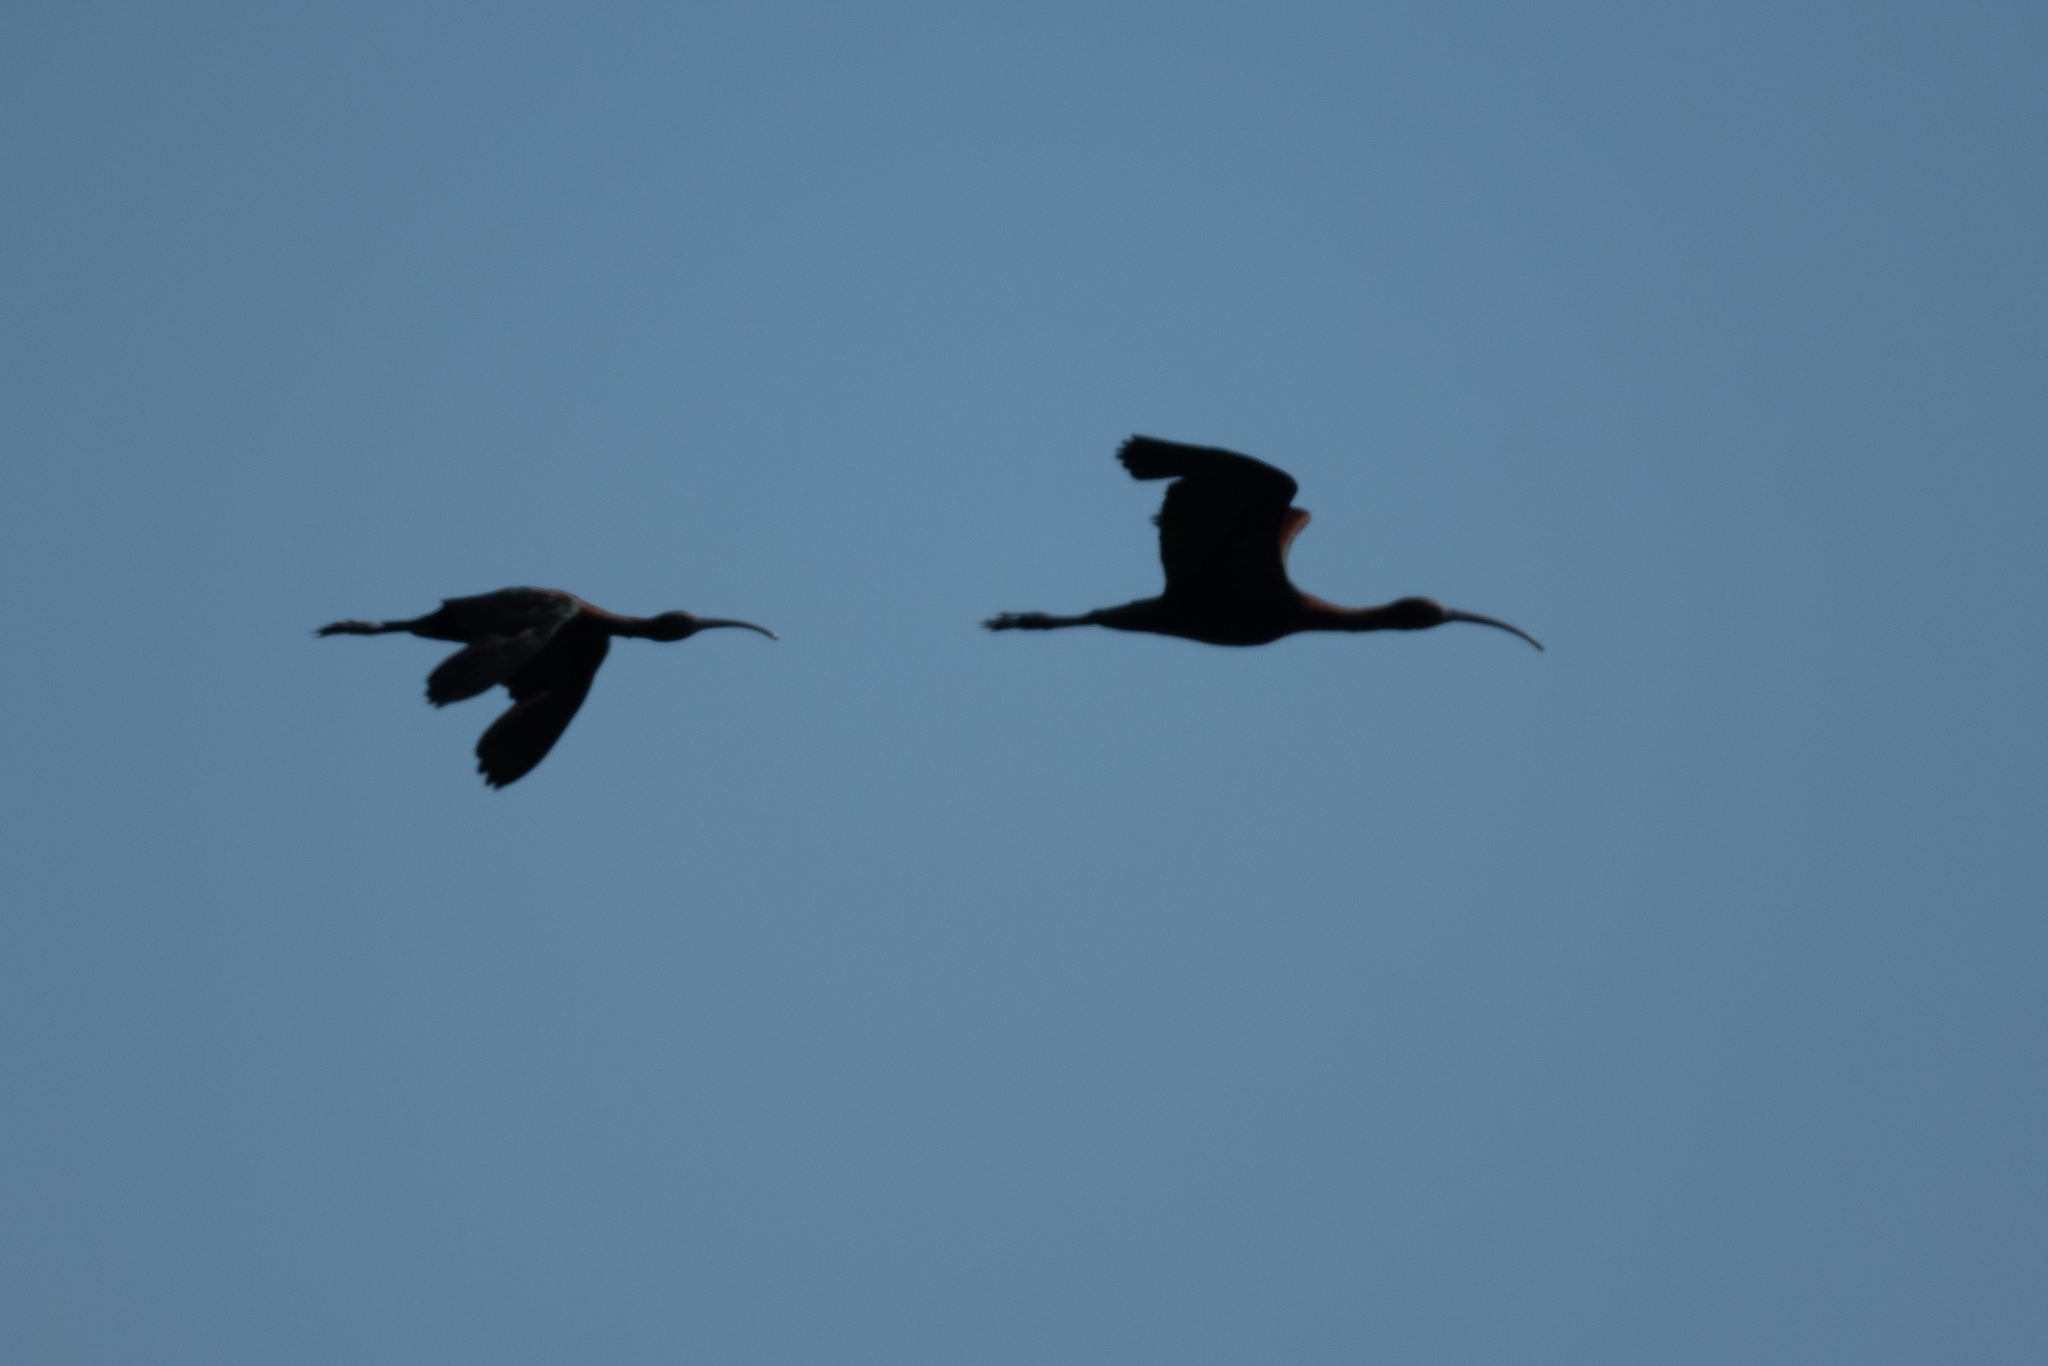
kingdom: Animalia
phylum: Chordata
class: Aves
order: Pelecaniformes
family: Threskiornithidae
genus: Plegadis
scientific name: Plegadis chihi
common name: White-faced ibis
